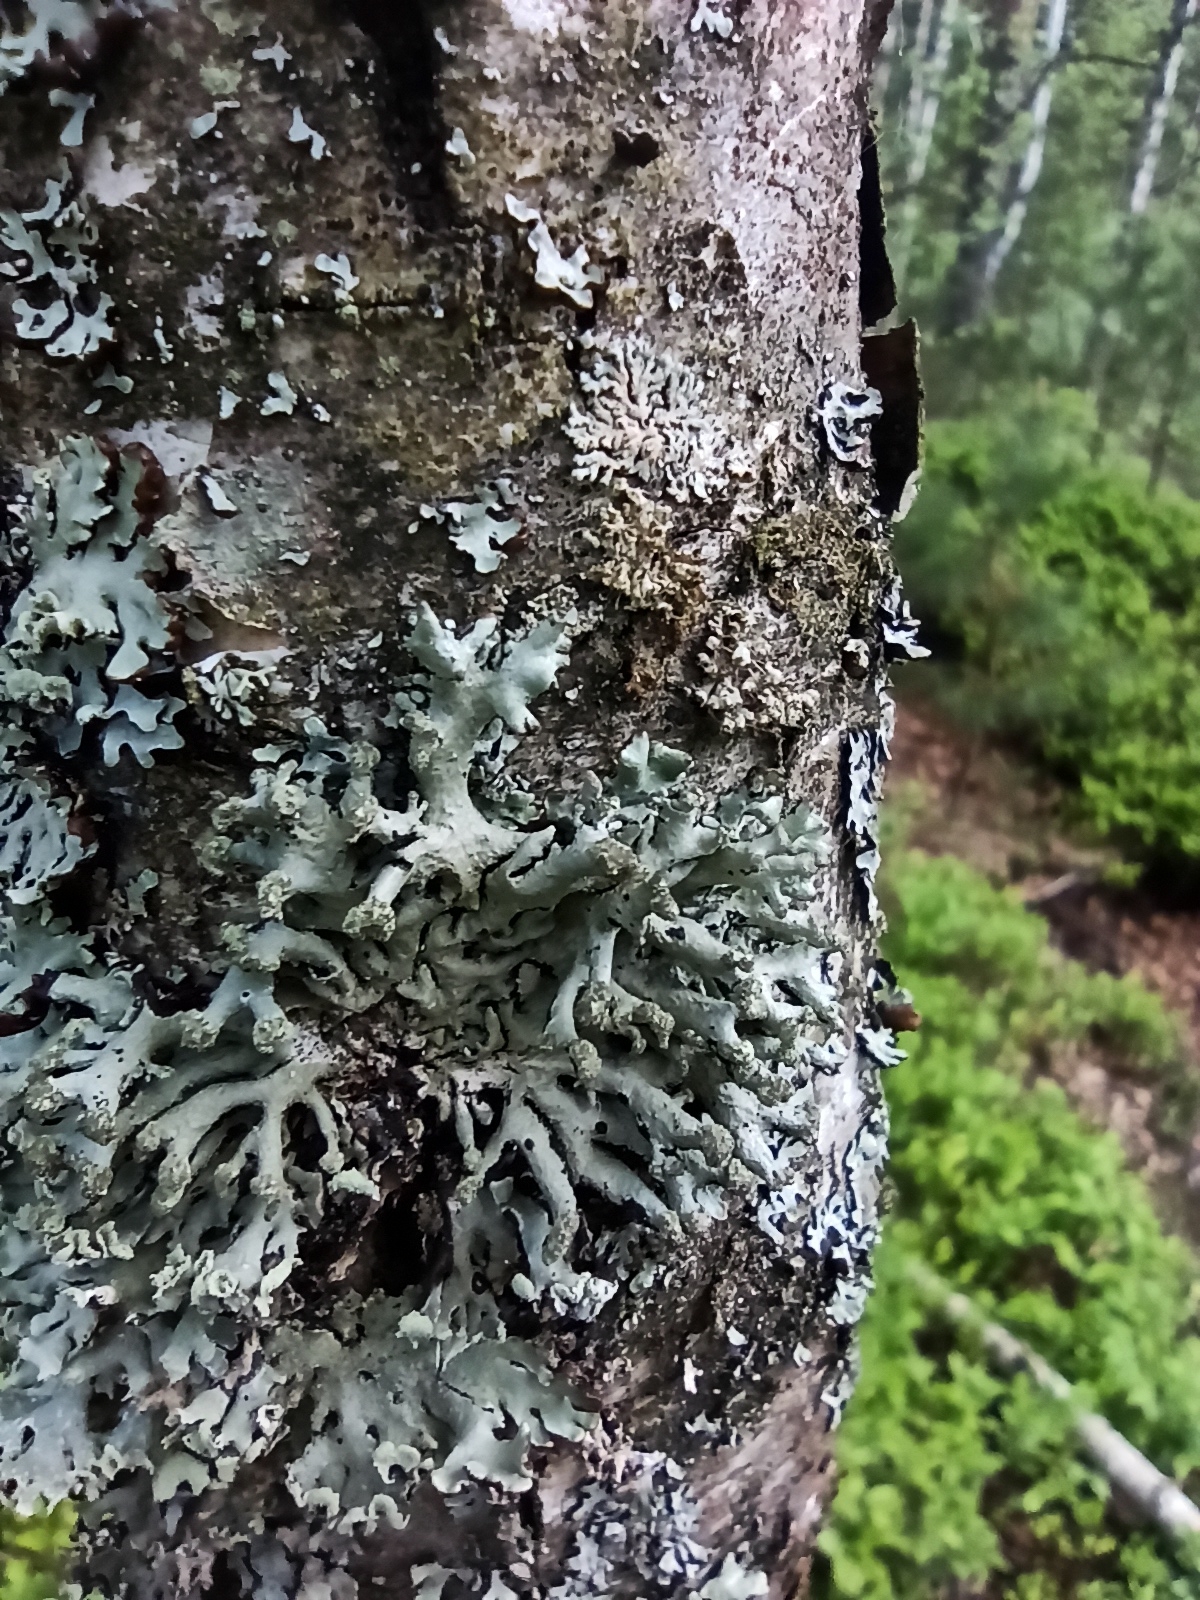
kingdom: Fungi
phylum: Ascomycota
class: Lecanoromycetes
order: Lecanorales
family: Parmeliaceae
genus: Hypogymnia
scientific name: Hypogymnia tubulosa
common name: Powder-headed tube lichen
